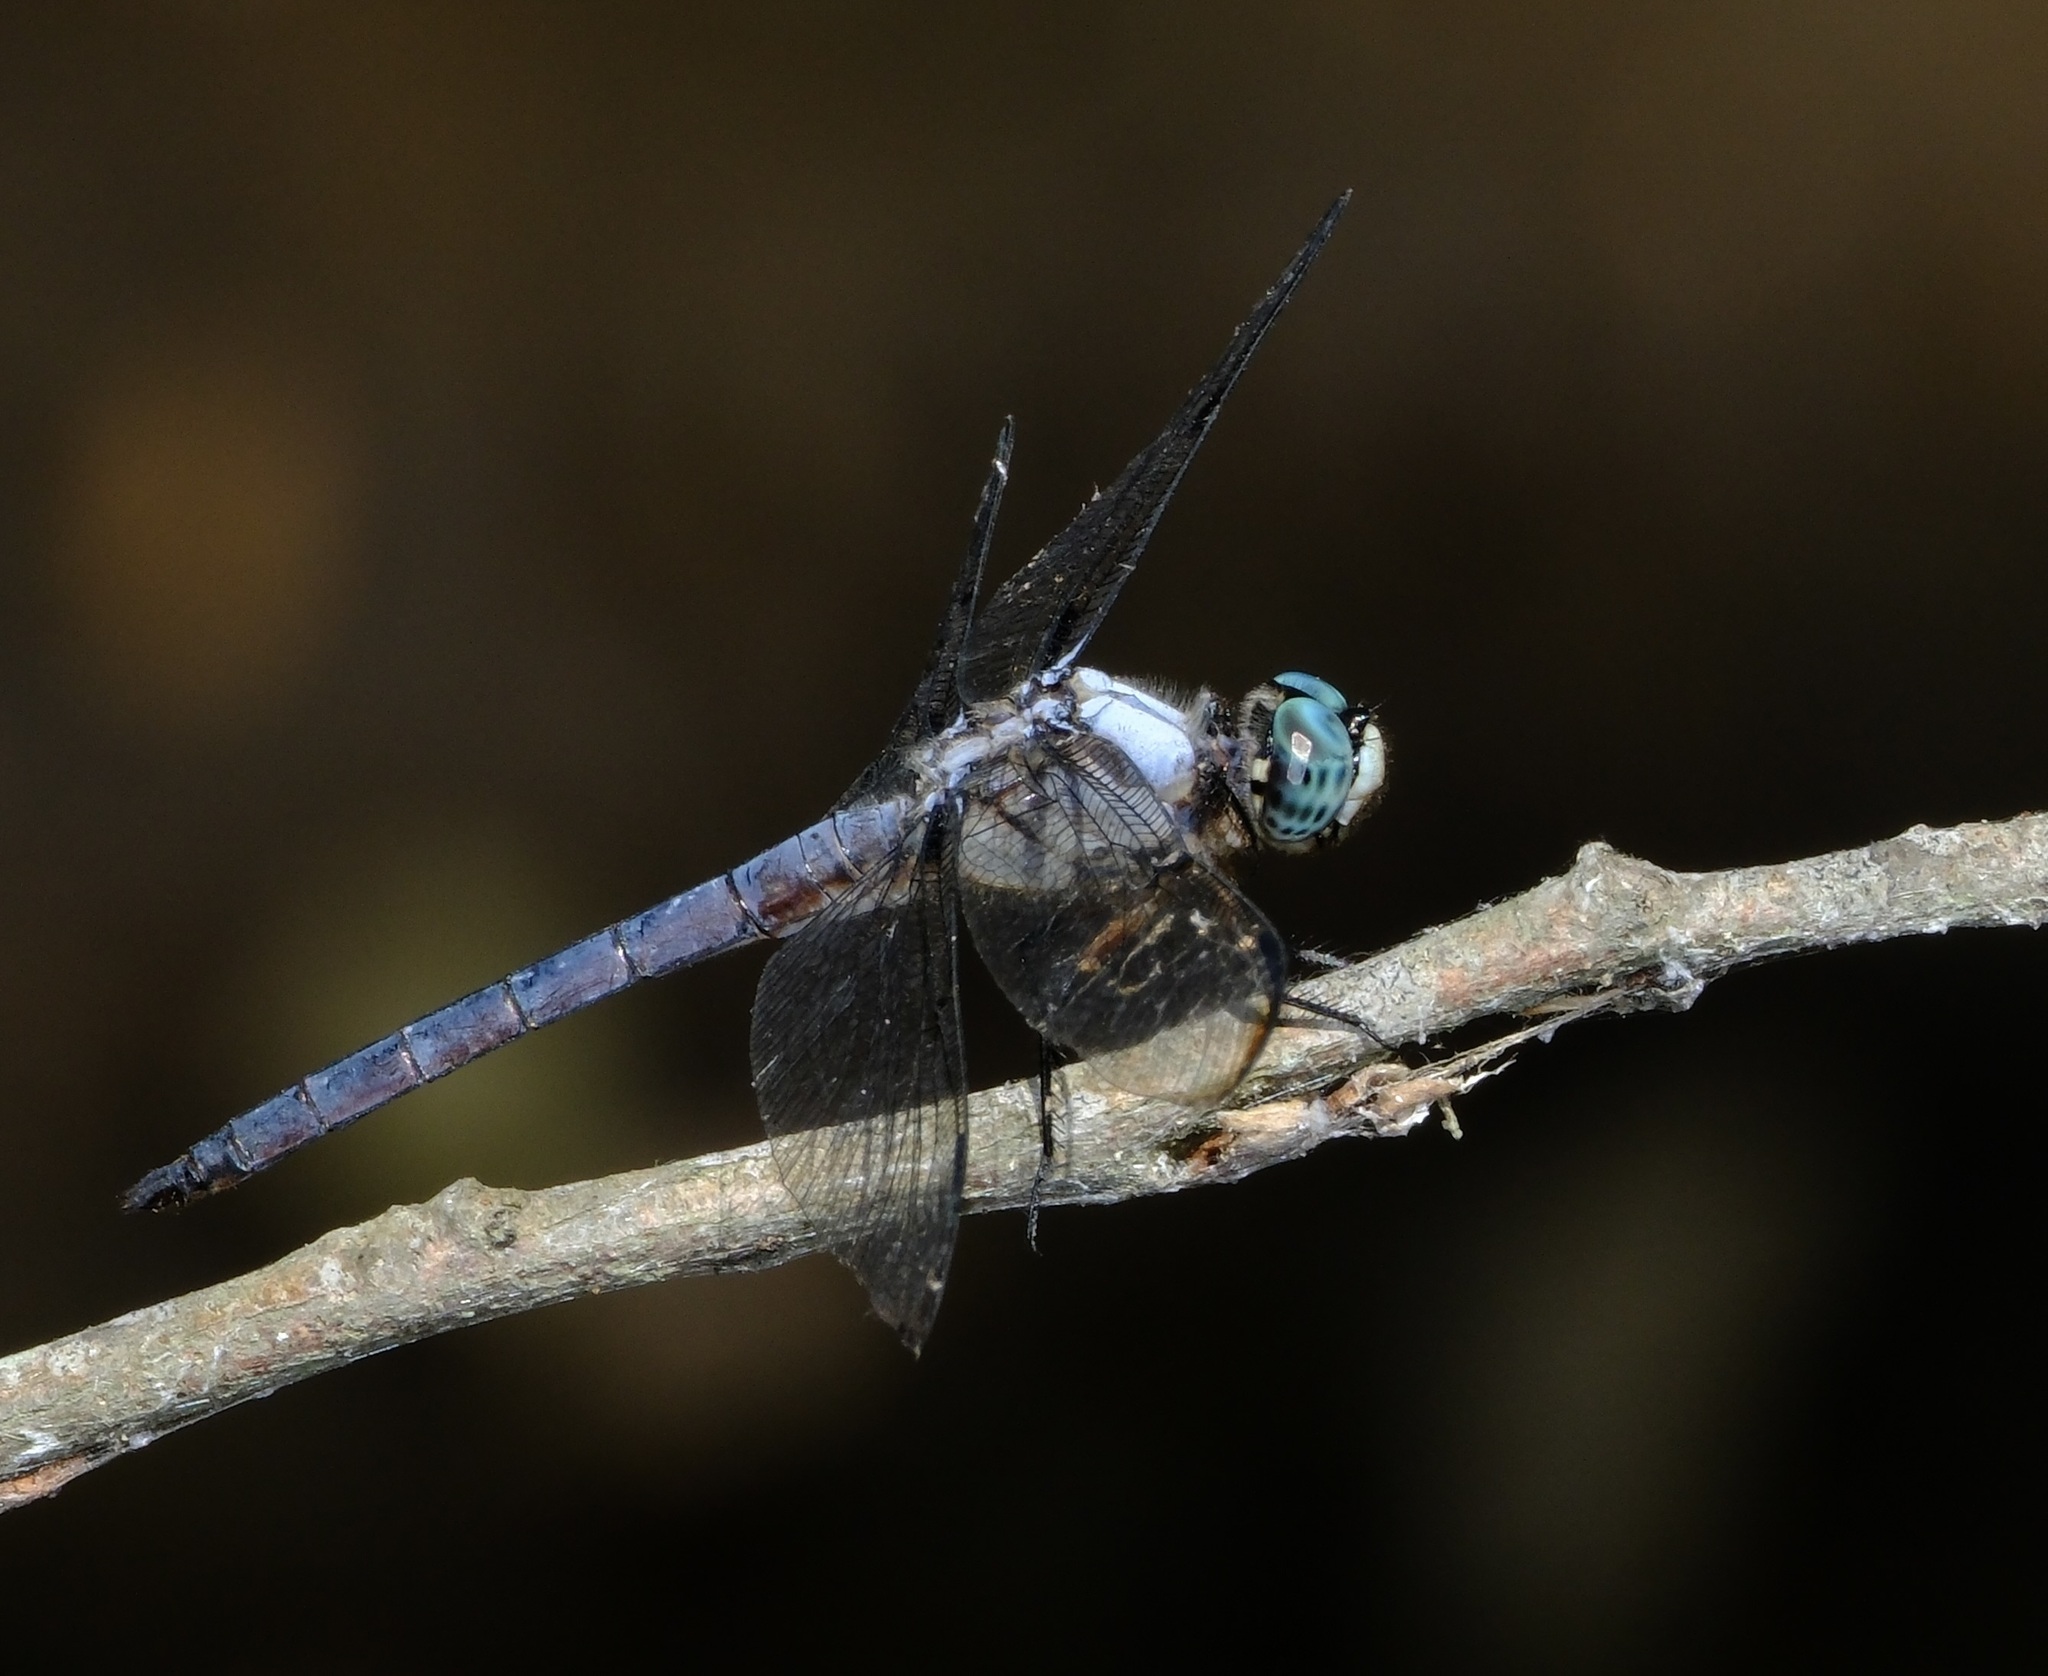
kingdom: Animalia
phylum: Arthropoda
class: Insecta
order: Odonata
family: Libellulidae
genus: Libellula
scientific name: Libellula vibrans
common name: Great blue skimmer
